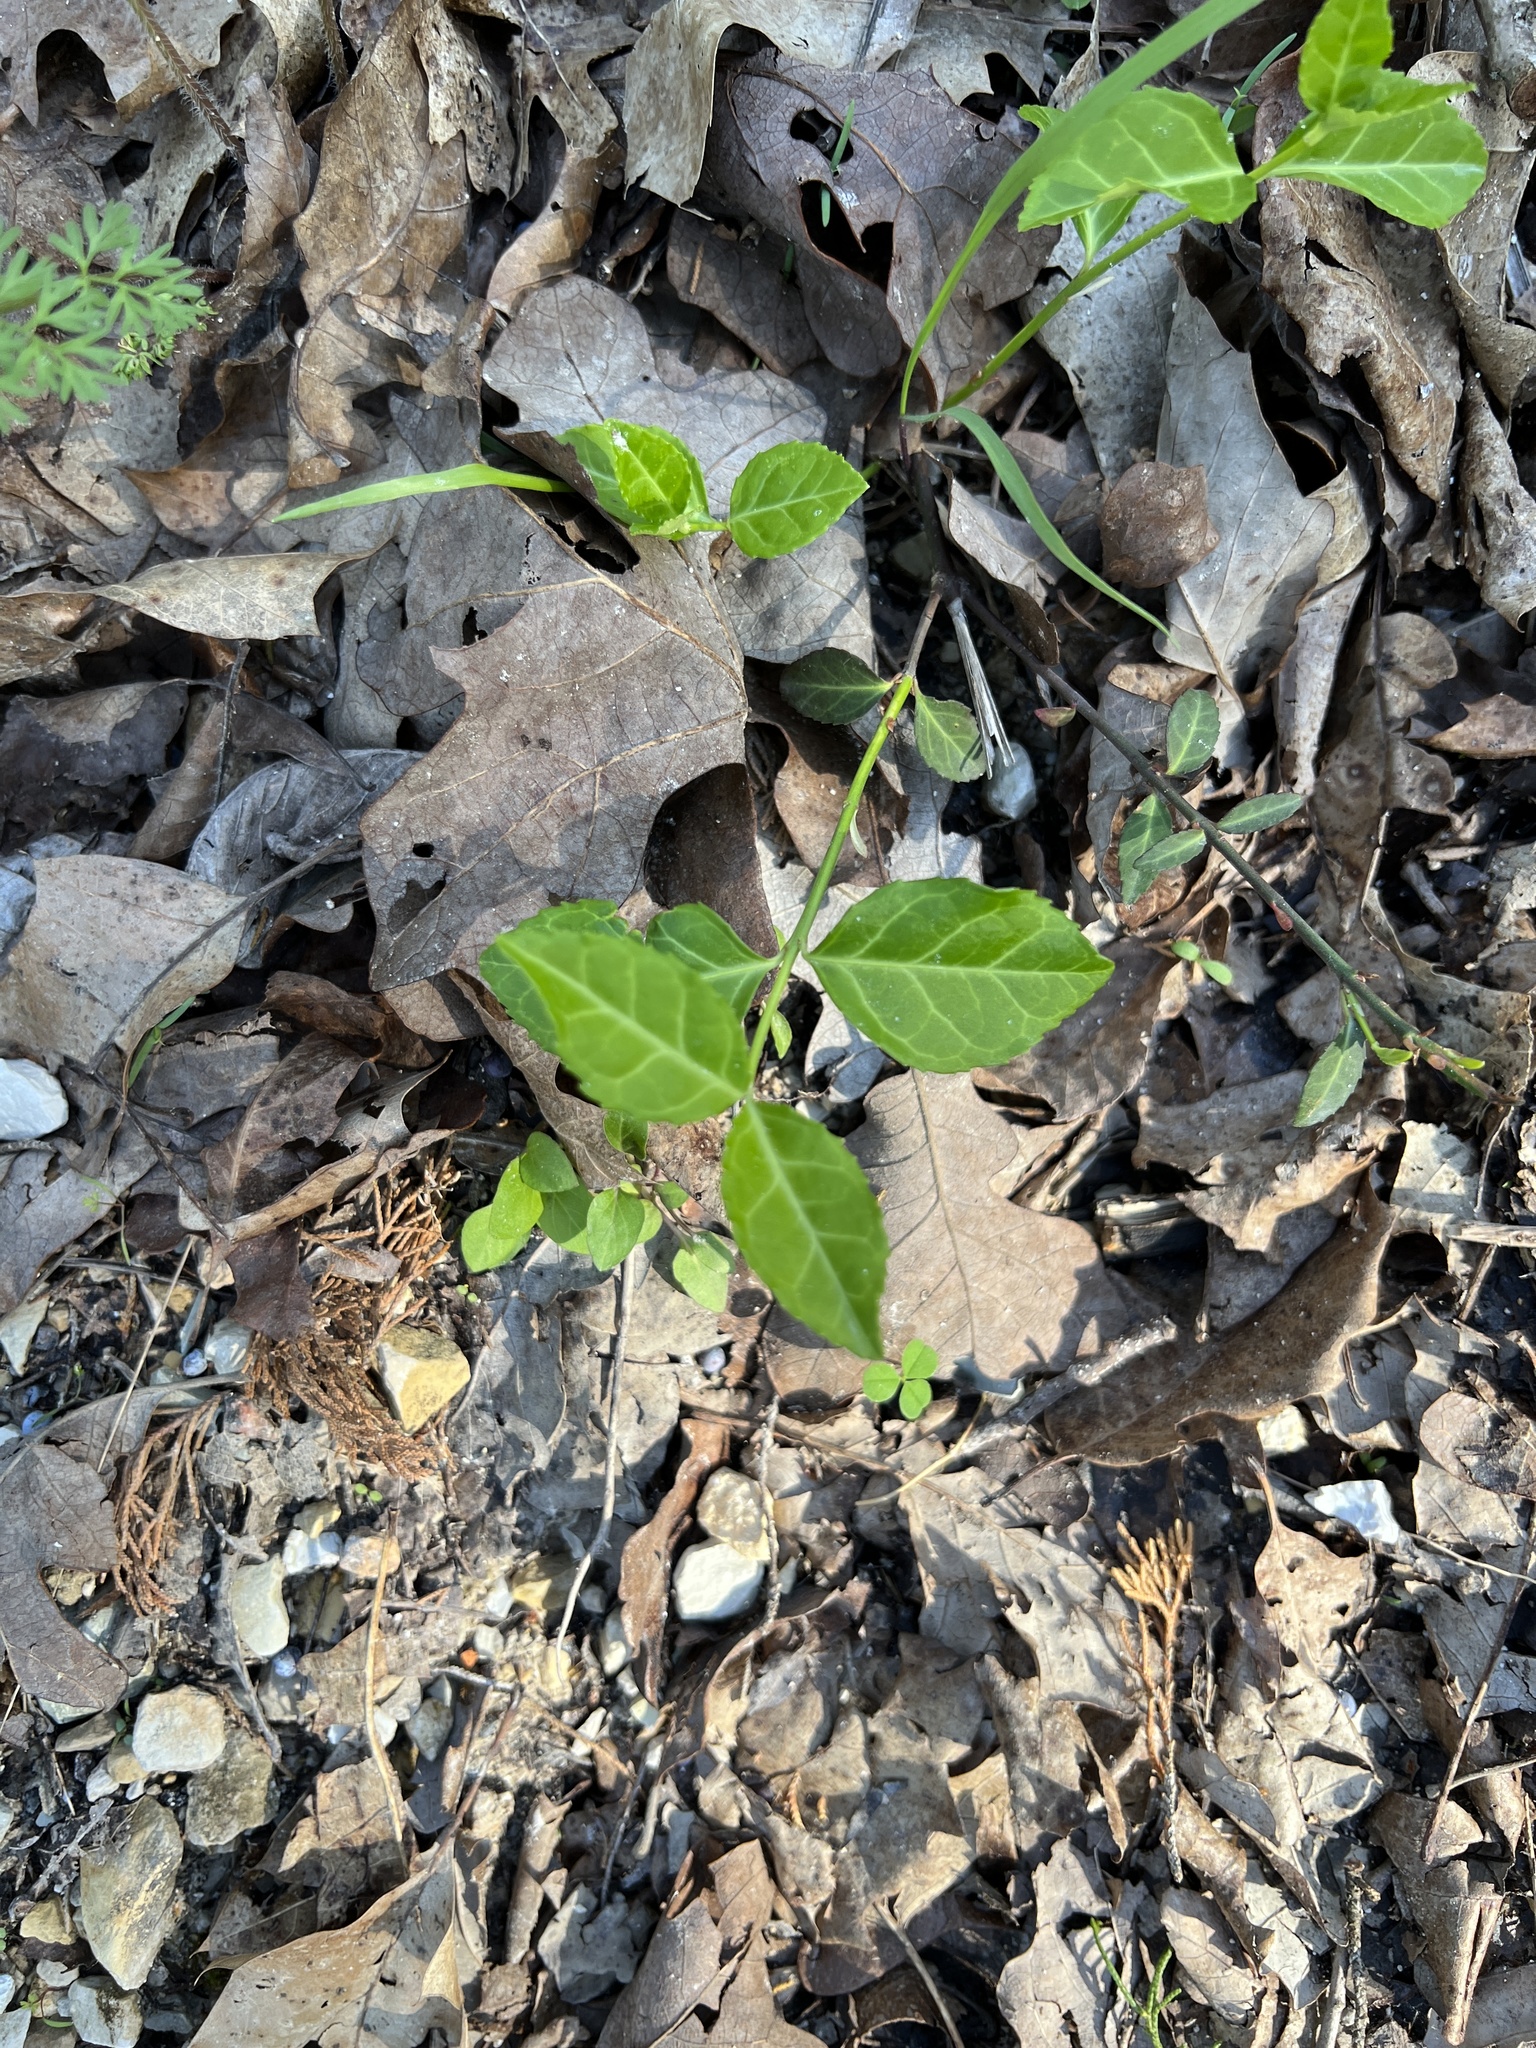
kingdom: Plantae
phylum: Tracheophyta
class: Magnoliopsida
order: Celastrales
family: Celastraceae
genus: Euonymus
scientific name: Euonymus fortunei
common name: Climbing euonymus
